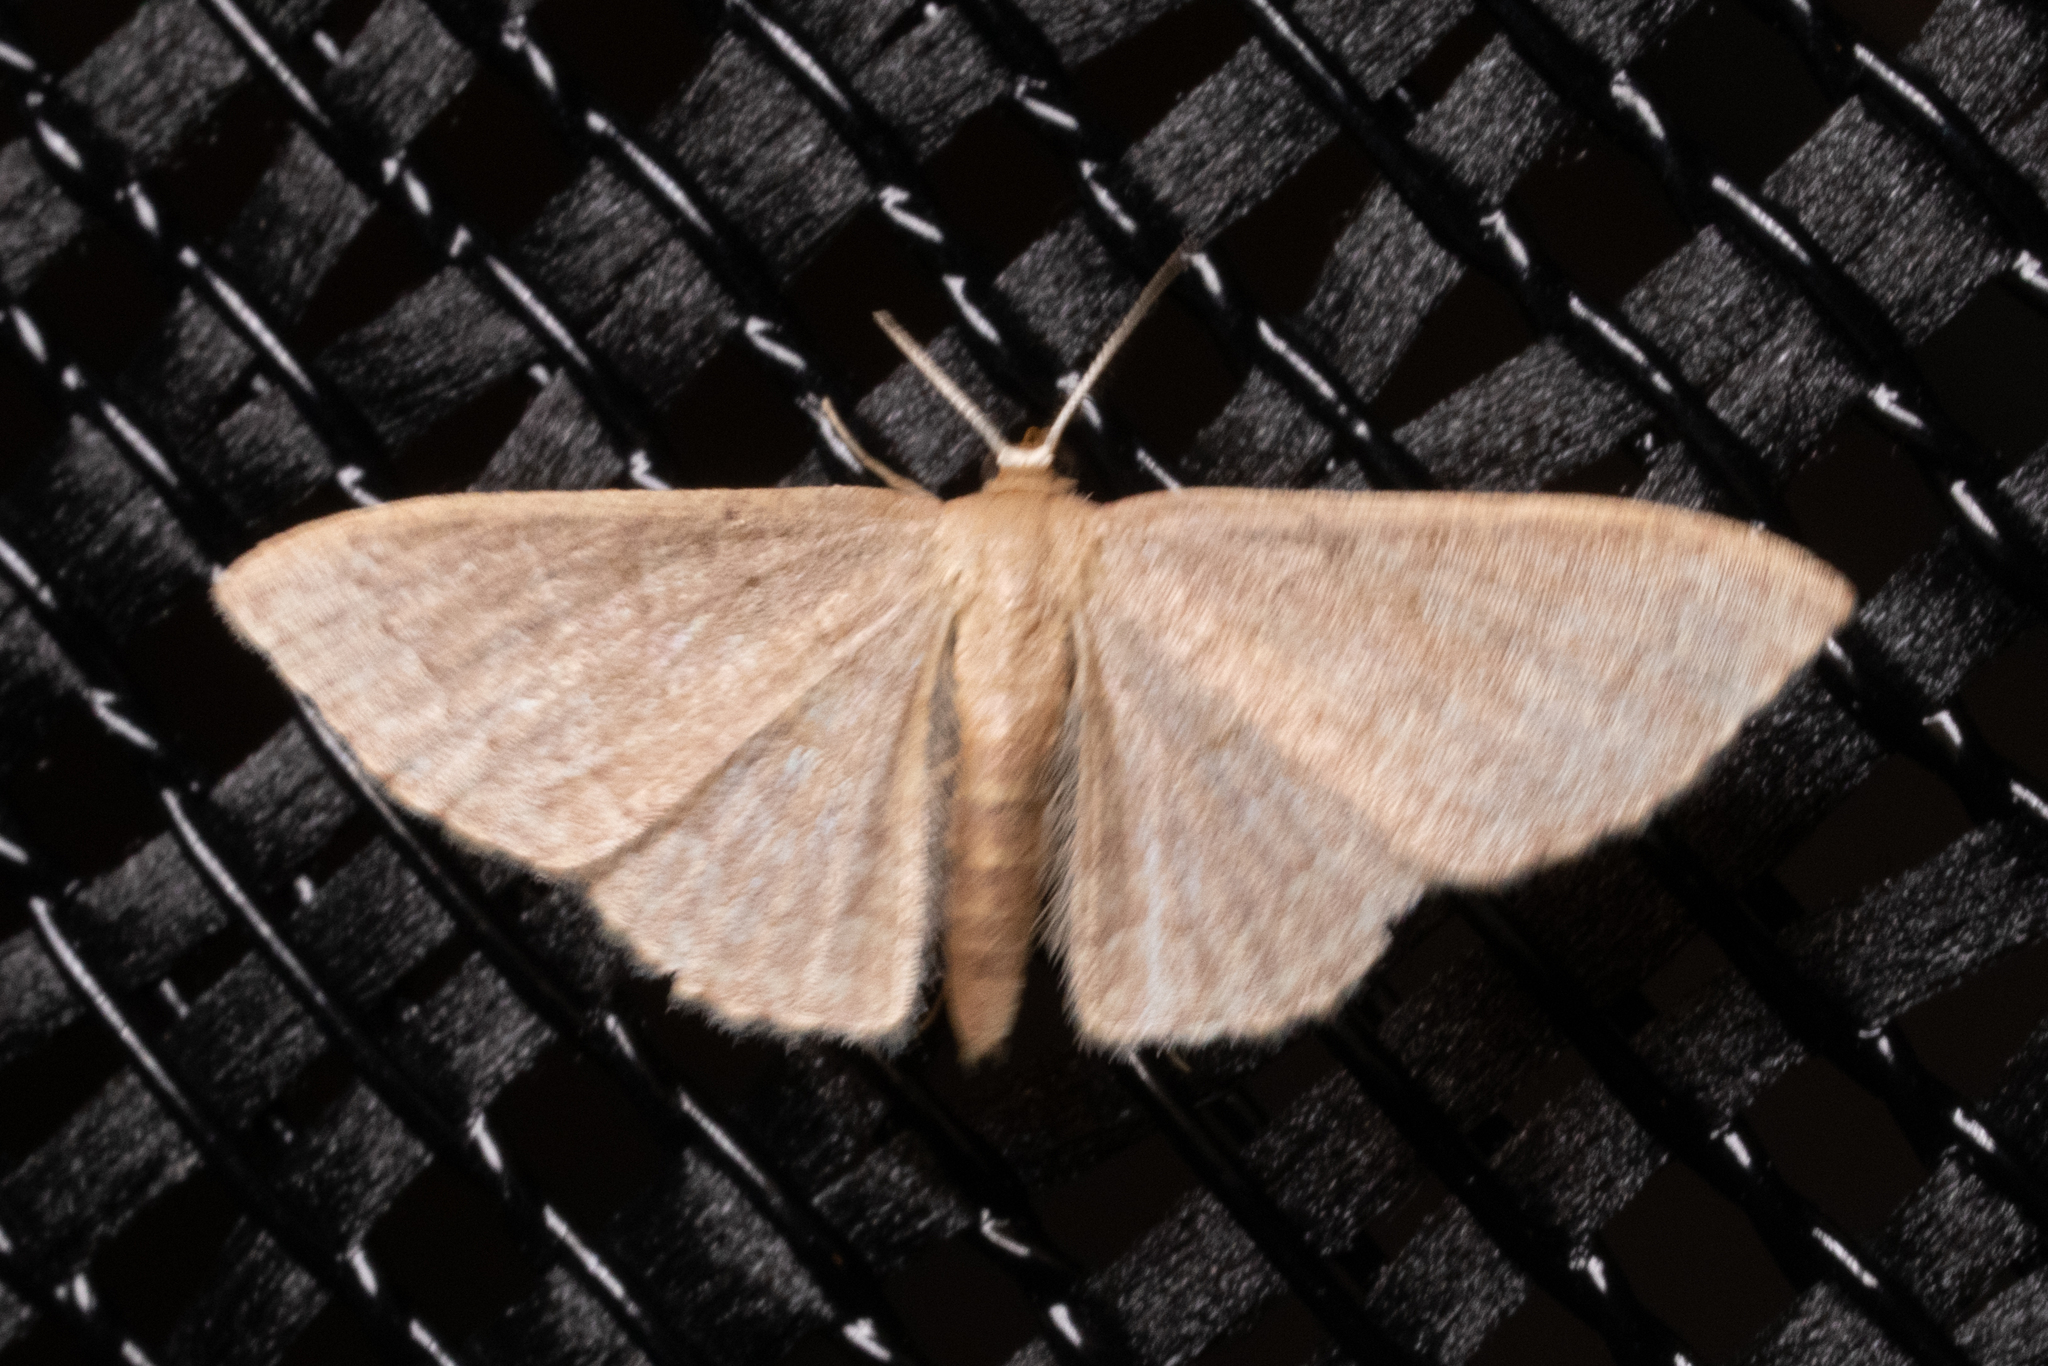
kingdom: Animalia
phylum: Arthropoda
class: Insecta
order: Lepidoptera
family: Geometridae
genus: Pleuroprucha
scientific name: Pleuroprucha insulsaria
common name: Common tan wave
